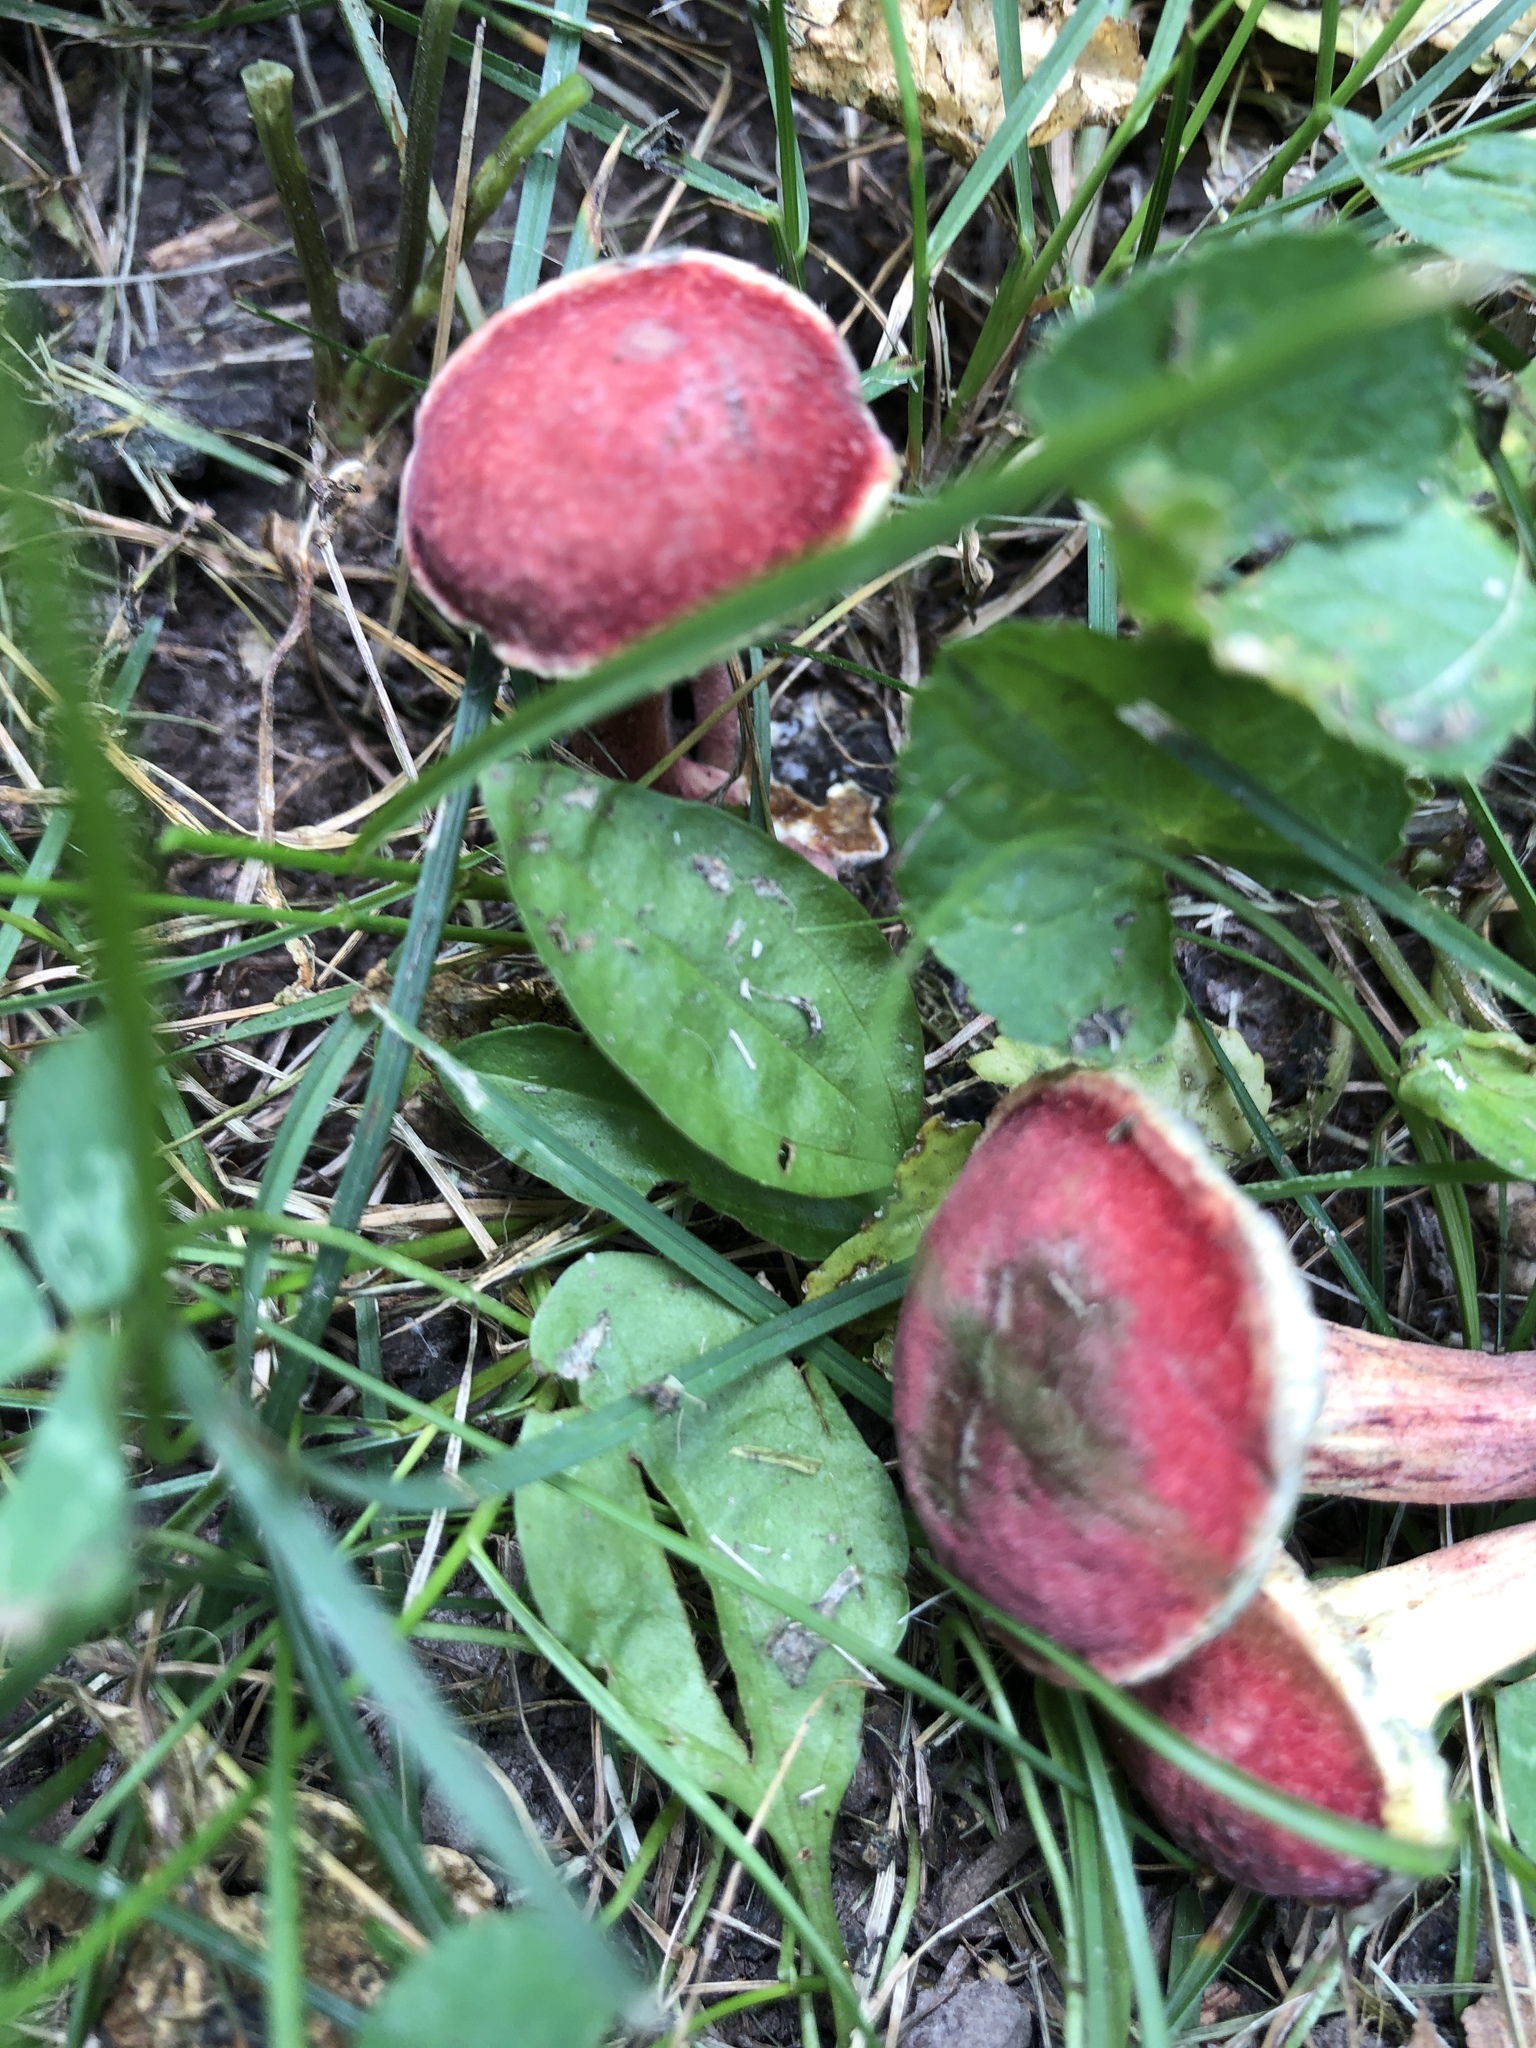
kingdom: Fungi
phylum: Basidiomycota
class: Agaricomycetes
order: Boletales
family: Boletaceae
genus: Hortiboletus
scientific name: Hortiboletus rubellus
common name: Ruby bolete
